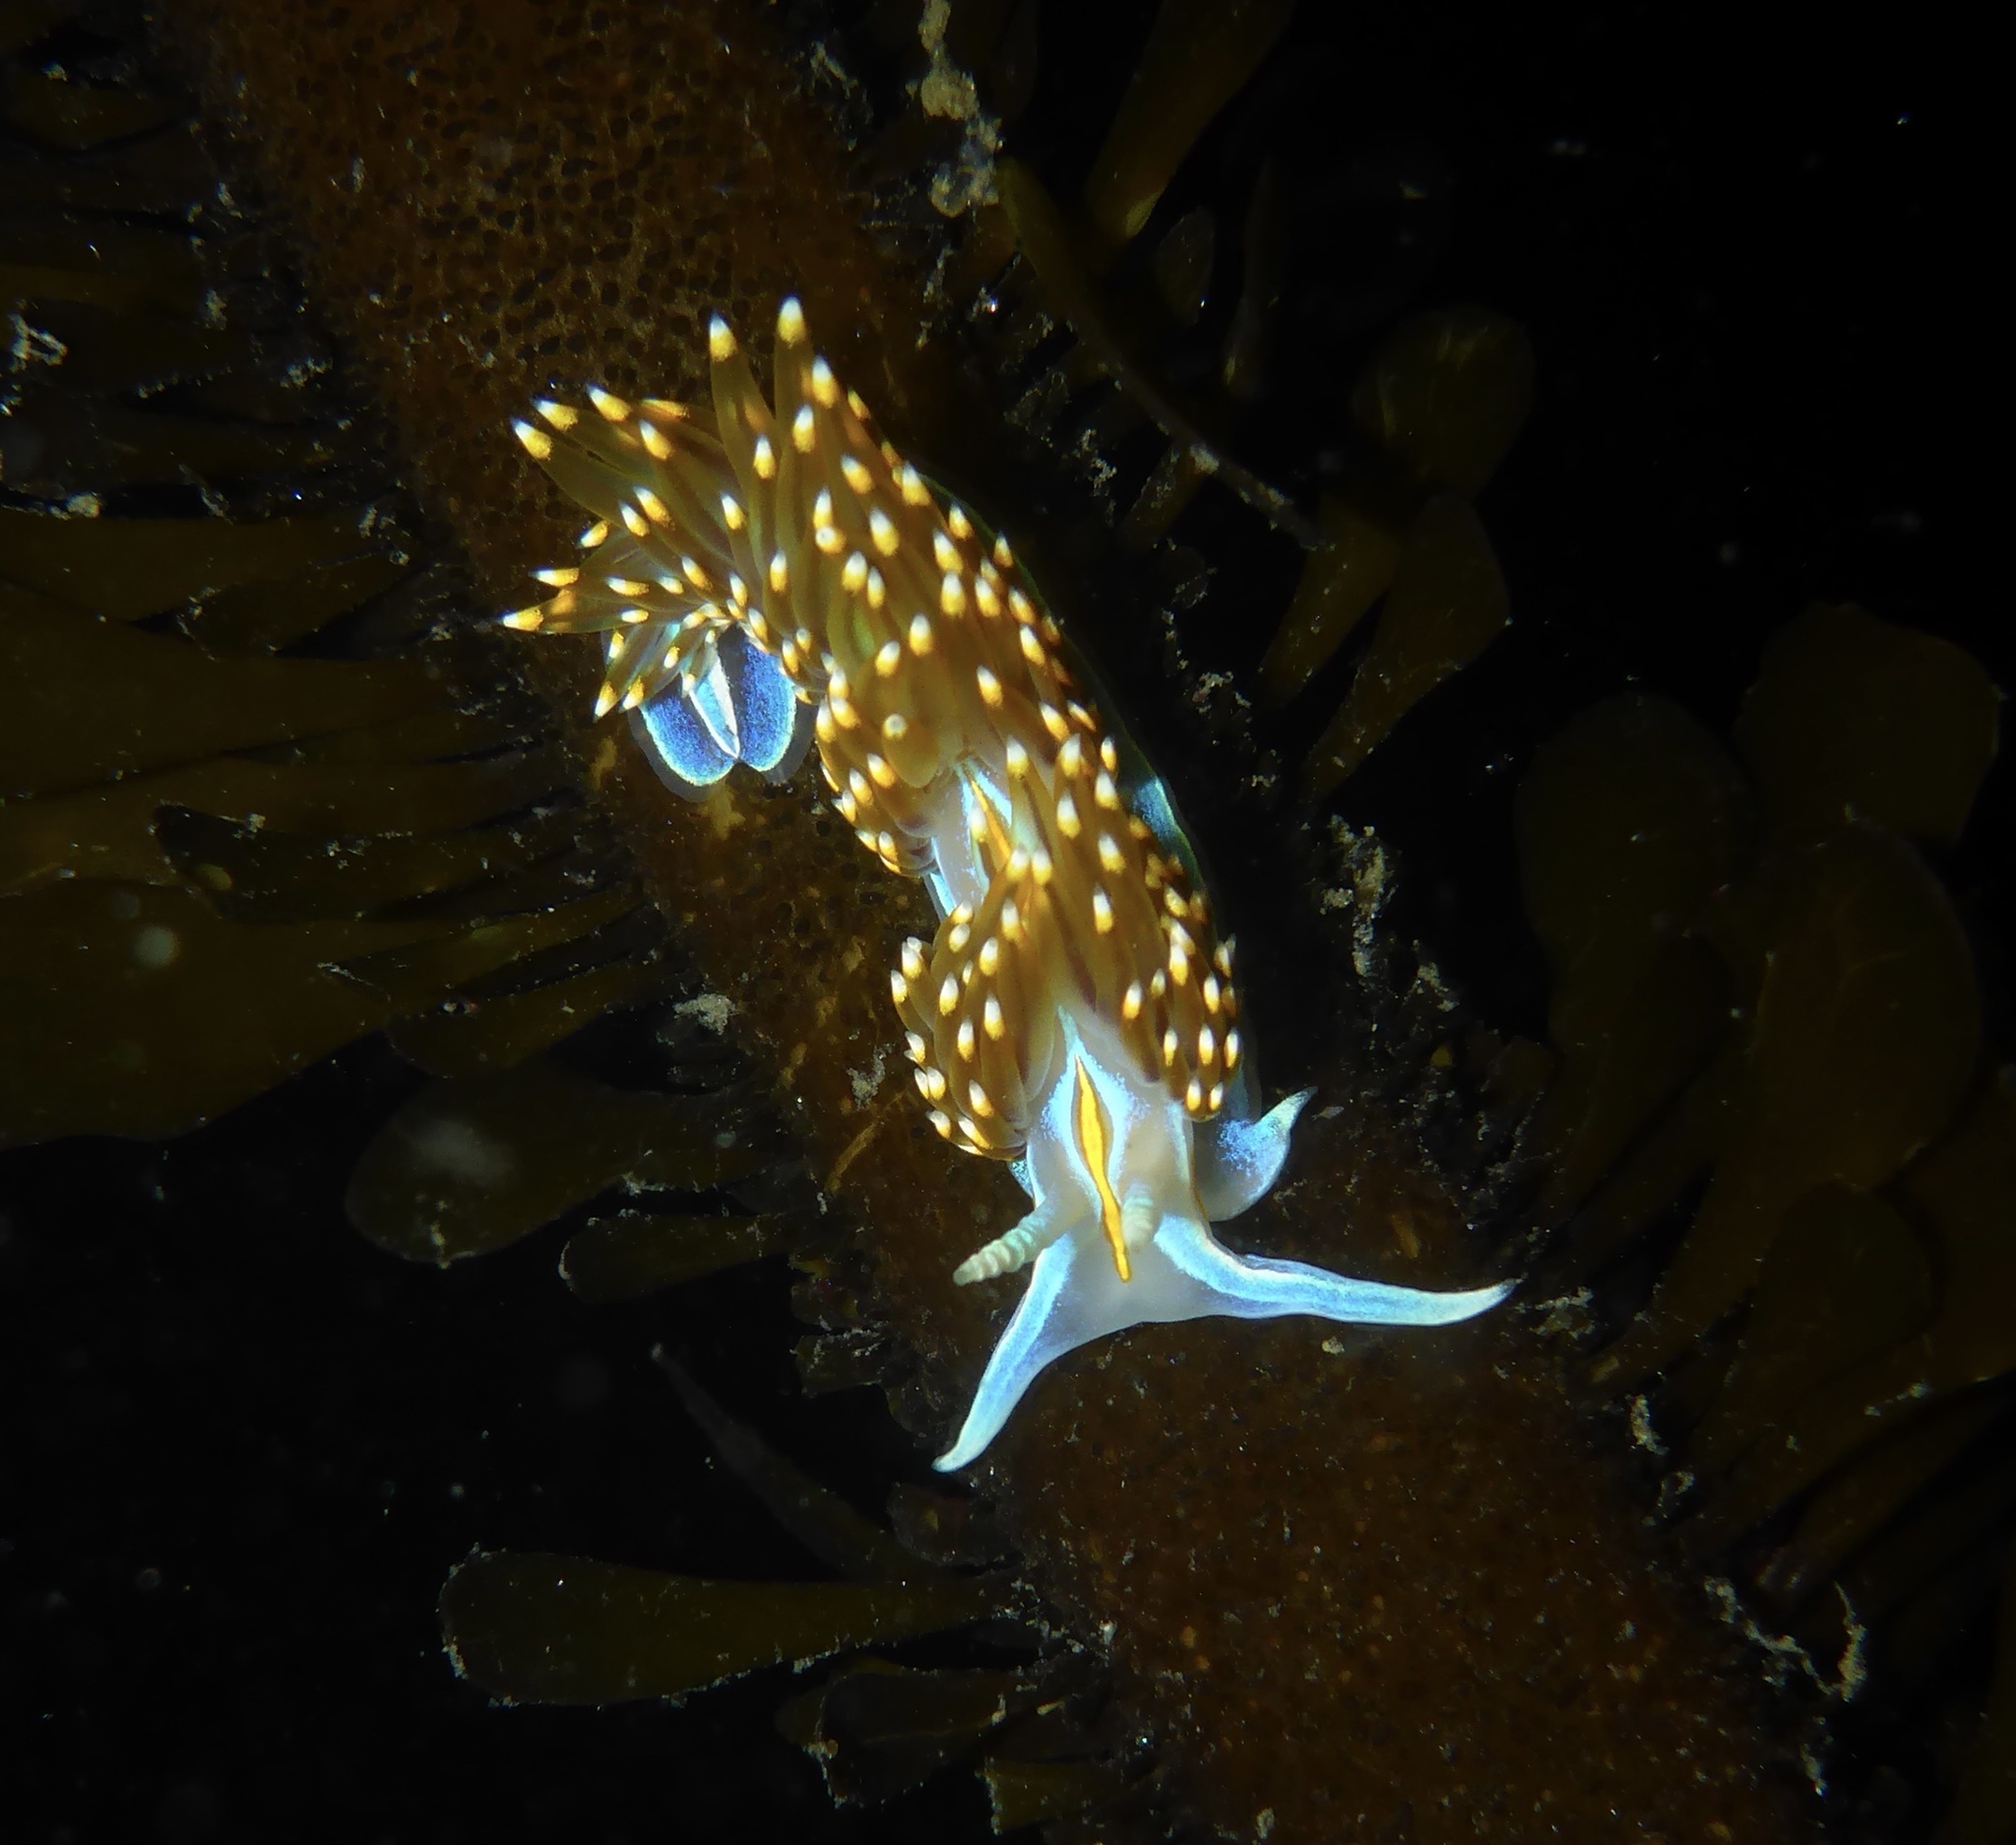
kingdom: Animalia
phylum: Mollusca
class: Gastropoda
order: Nudibranchia
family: Myrrhinidae
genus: Hermissenda
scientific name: Hermissenda opalescens
